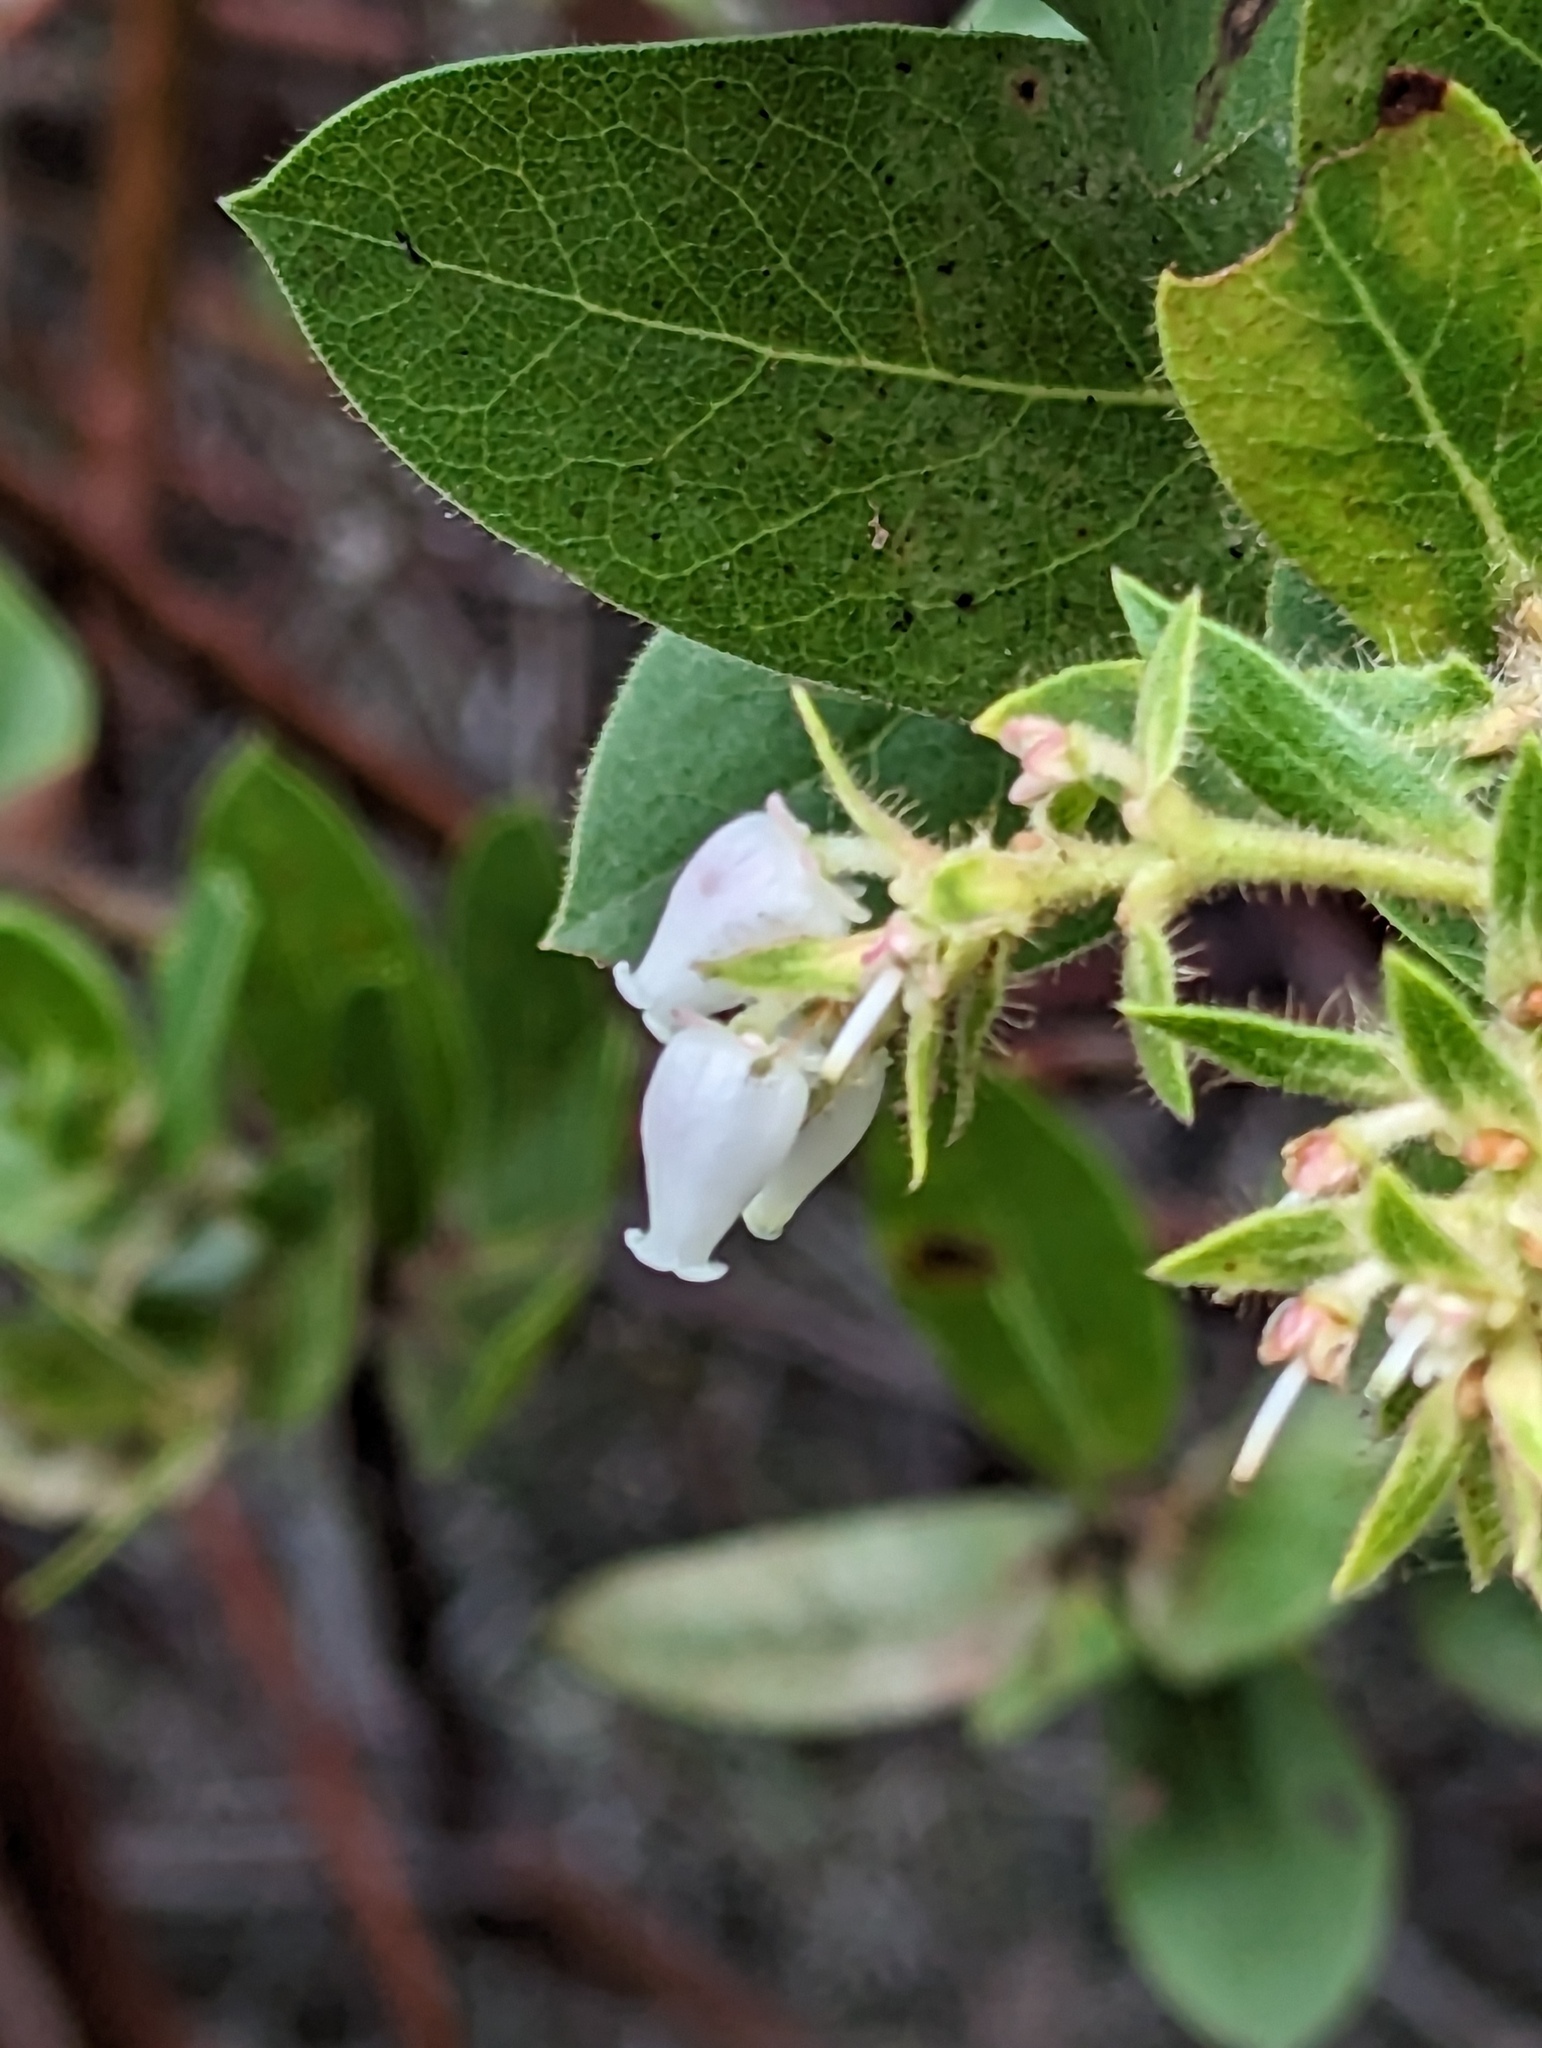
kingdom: Plantae
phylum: Tracheophyta
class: Magnoliopsida
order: Ericales
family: Ericaceae
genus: Arctostaphylos
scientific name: Arctostaphylos montaraensis
